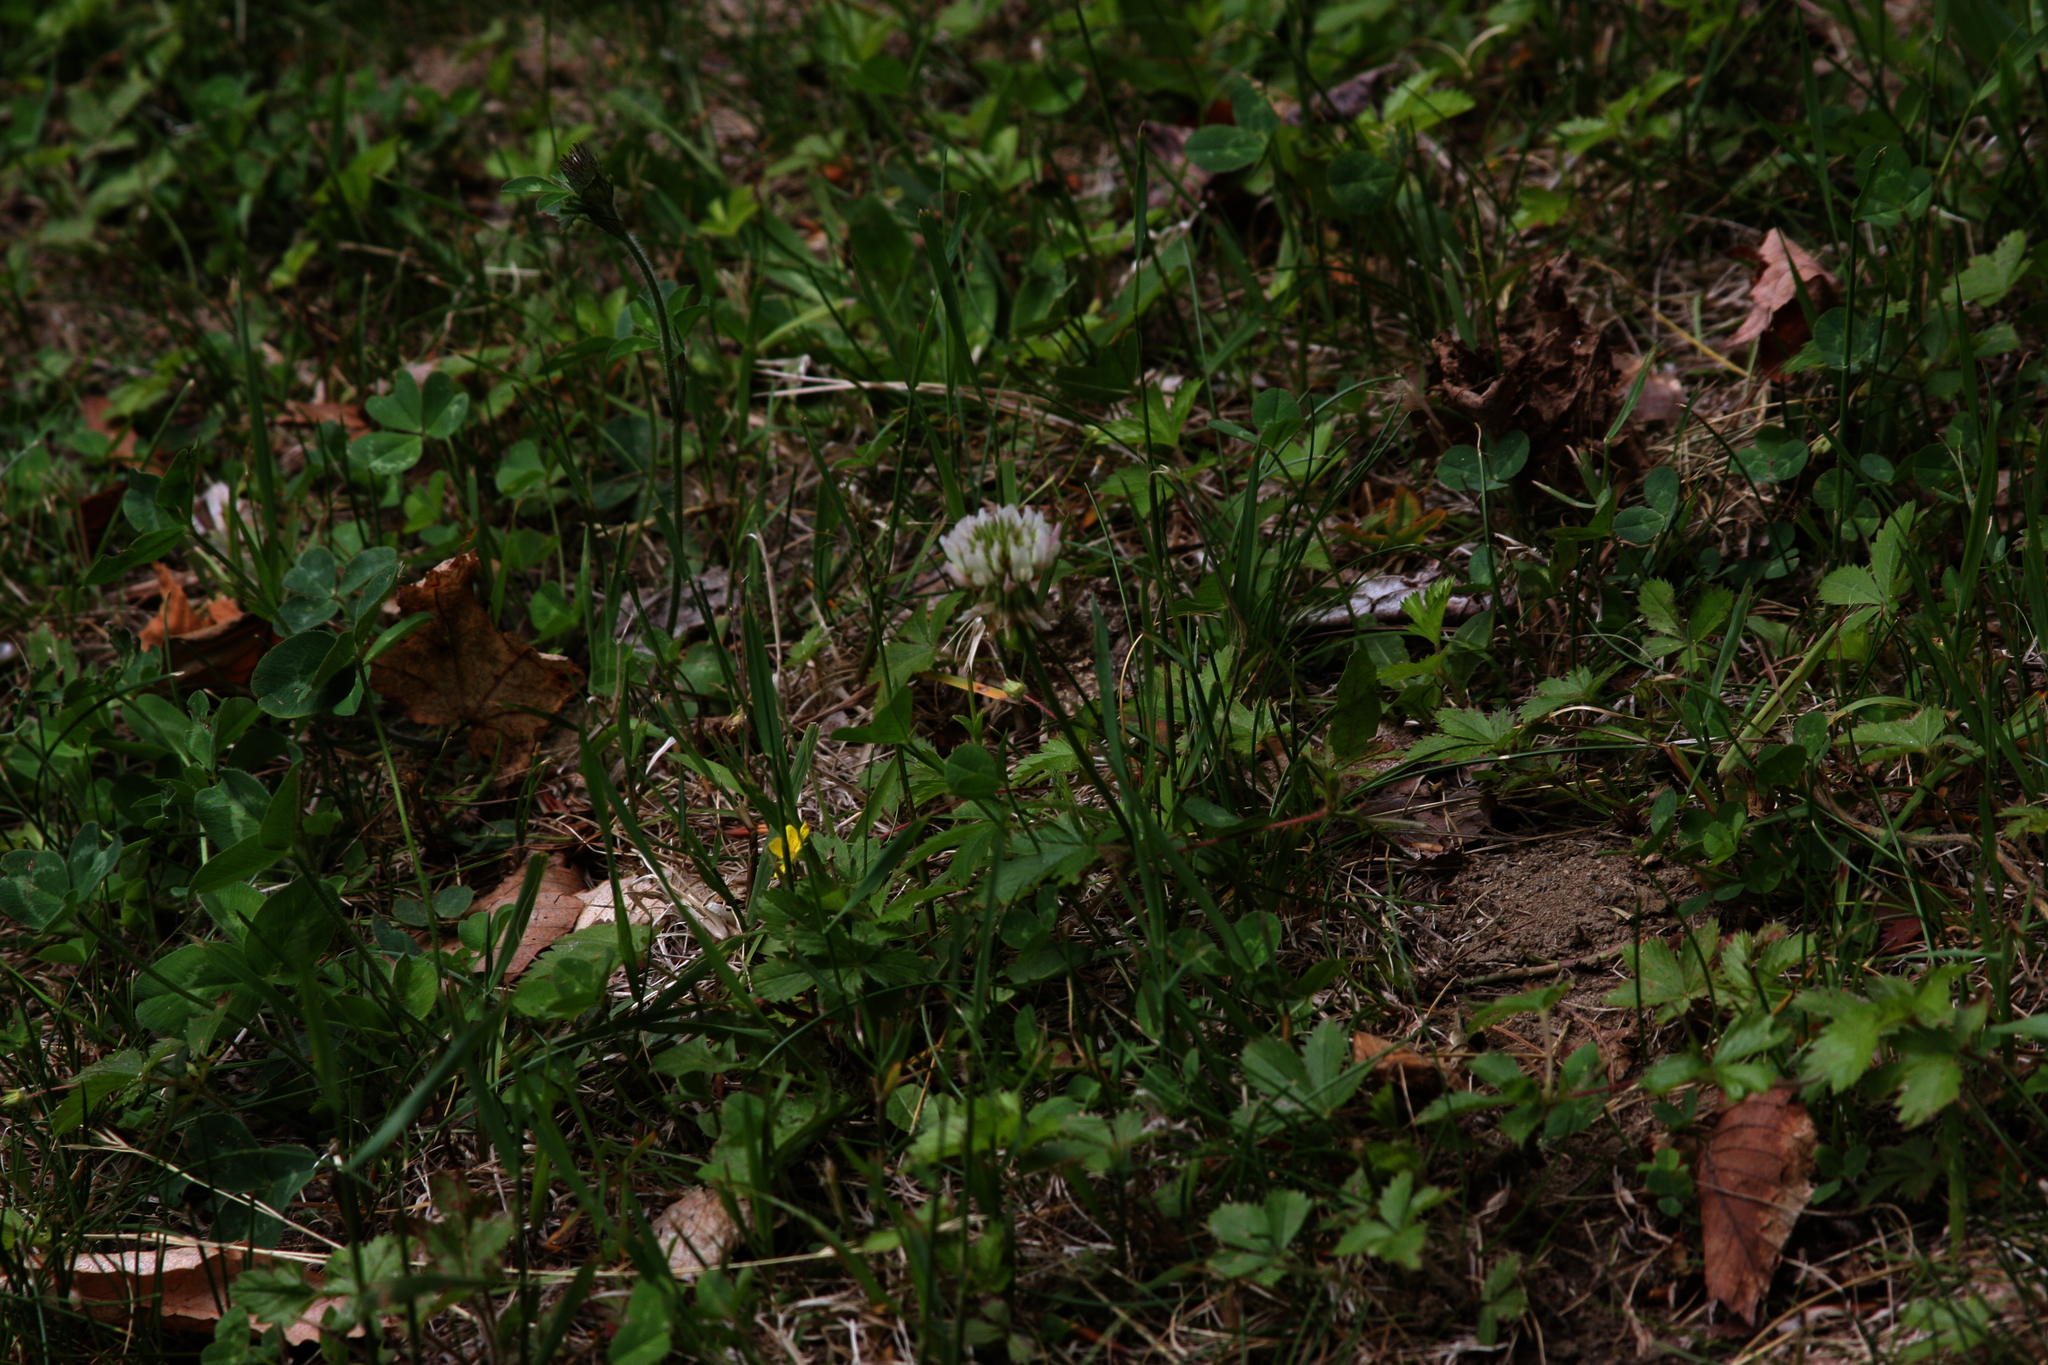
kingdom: Plantae
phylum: Tracheophyta
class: Magnoliopsida
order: Fabales
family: Fabaceae
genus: Trifolium
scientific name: Trifolium repens
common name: White clover
